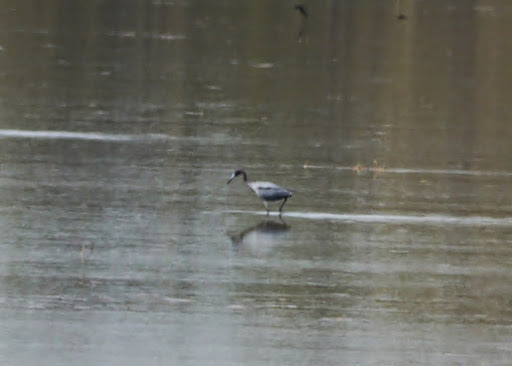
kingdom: Animalia
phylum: Chordata
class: Aves
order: Pelecaniformes
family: Ardeidae
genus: Egretta
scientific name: Egretta caerulea
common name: Little blue heron
